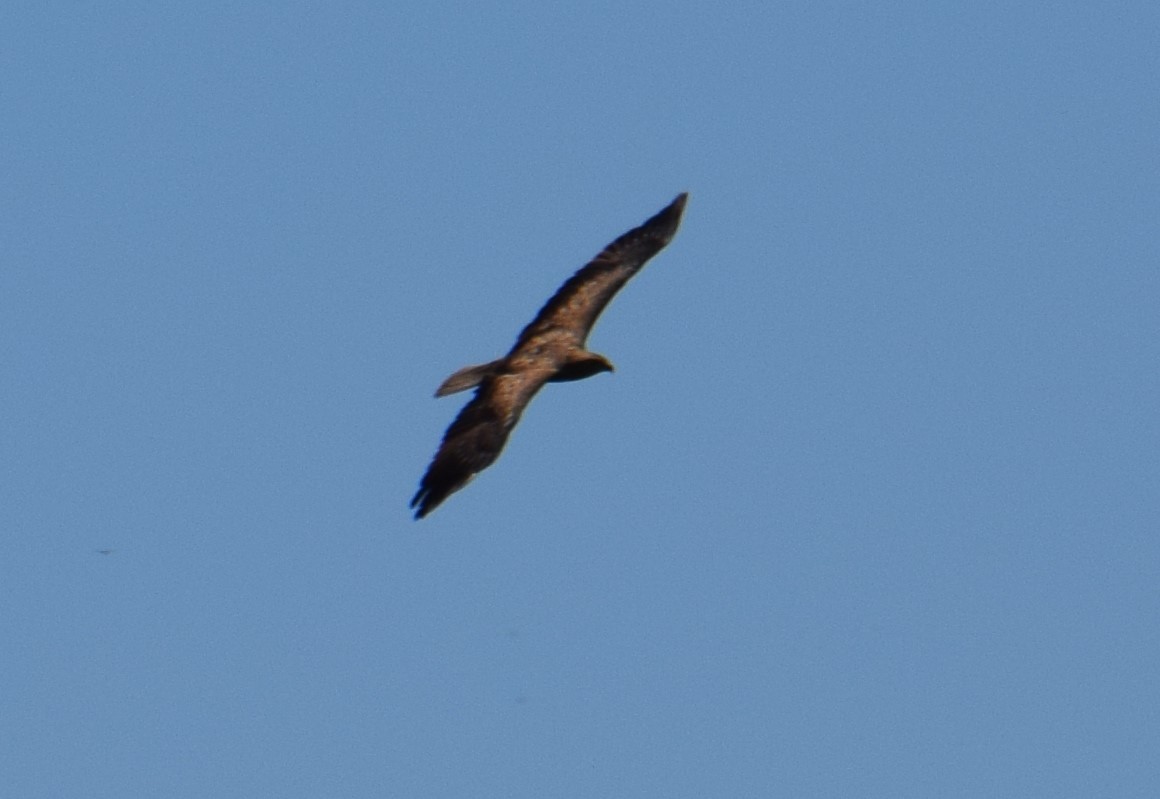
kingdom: Animalia
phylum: Chordata
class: Aves
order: Accipitriformes
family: Accipitridae
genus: Haliastur
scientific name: Haliastur sphenurus
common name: Whistling kite
